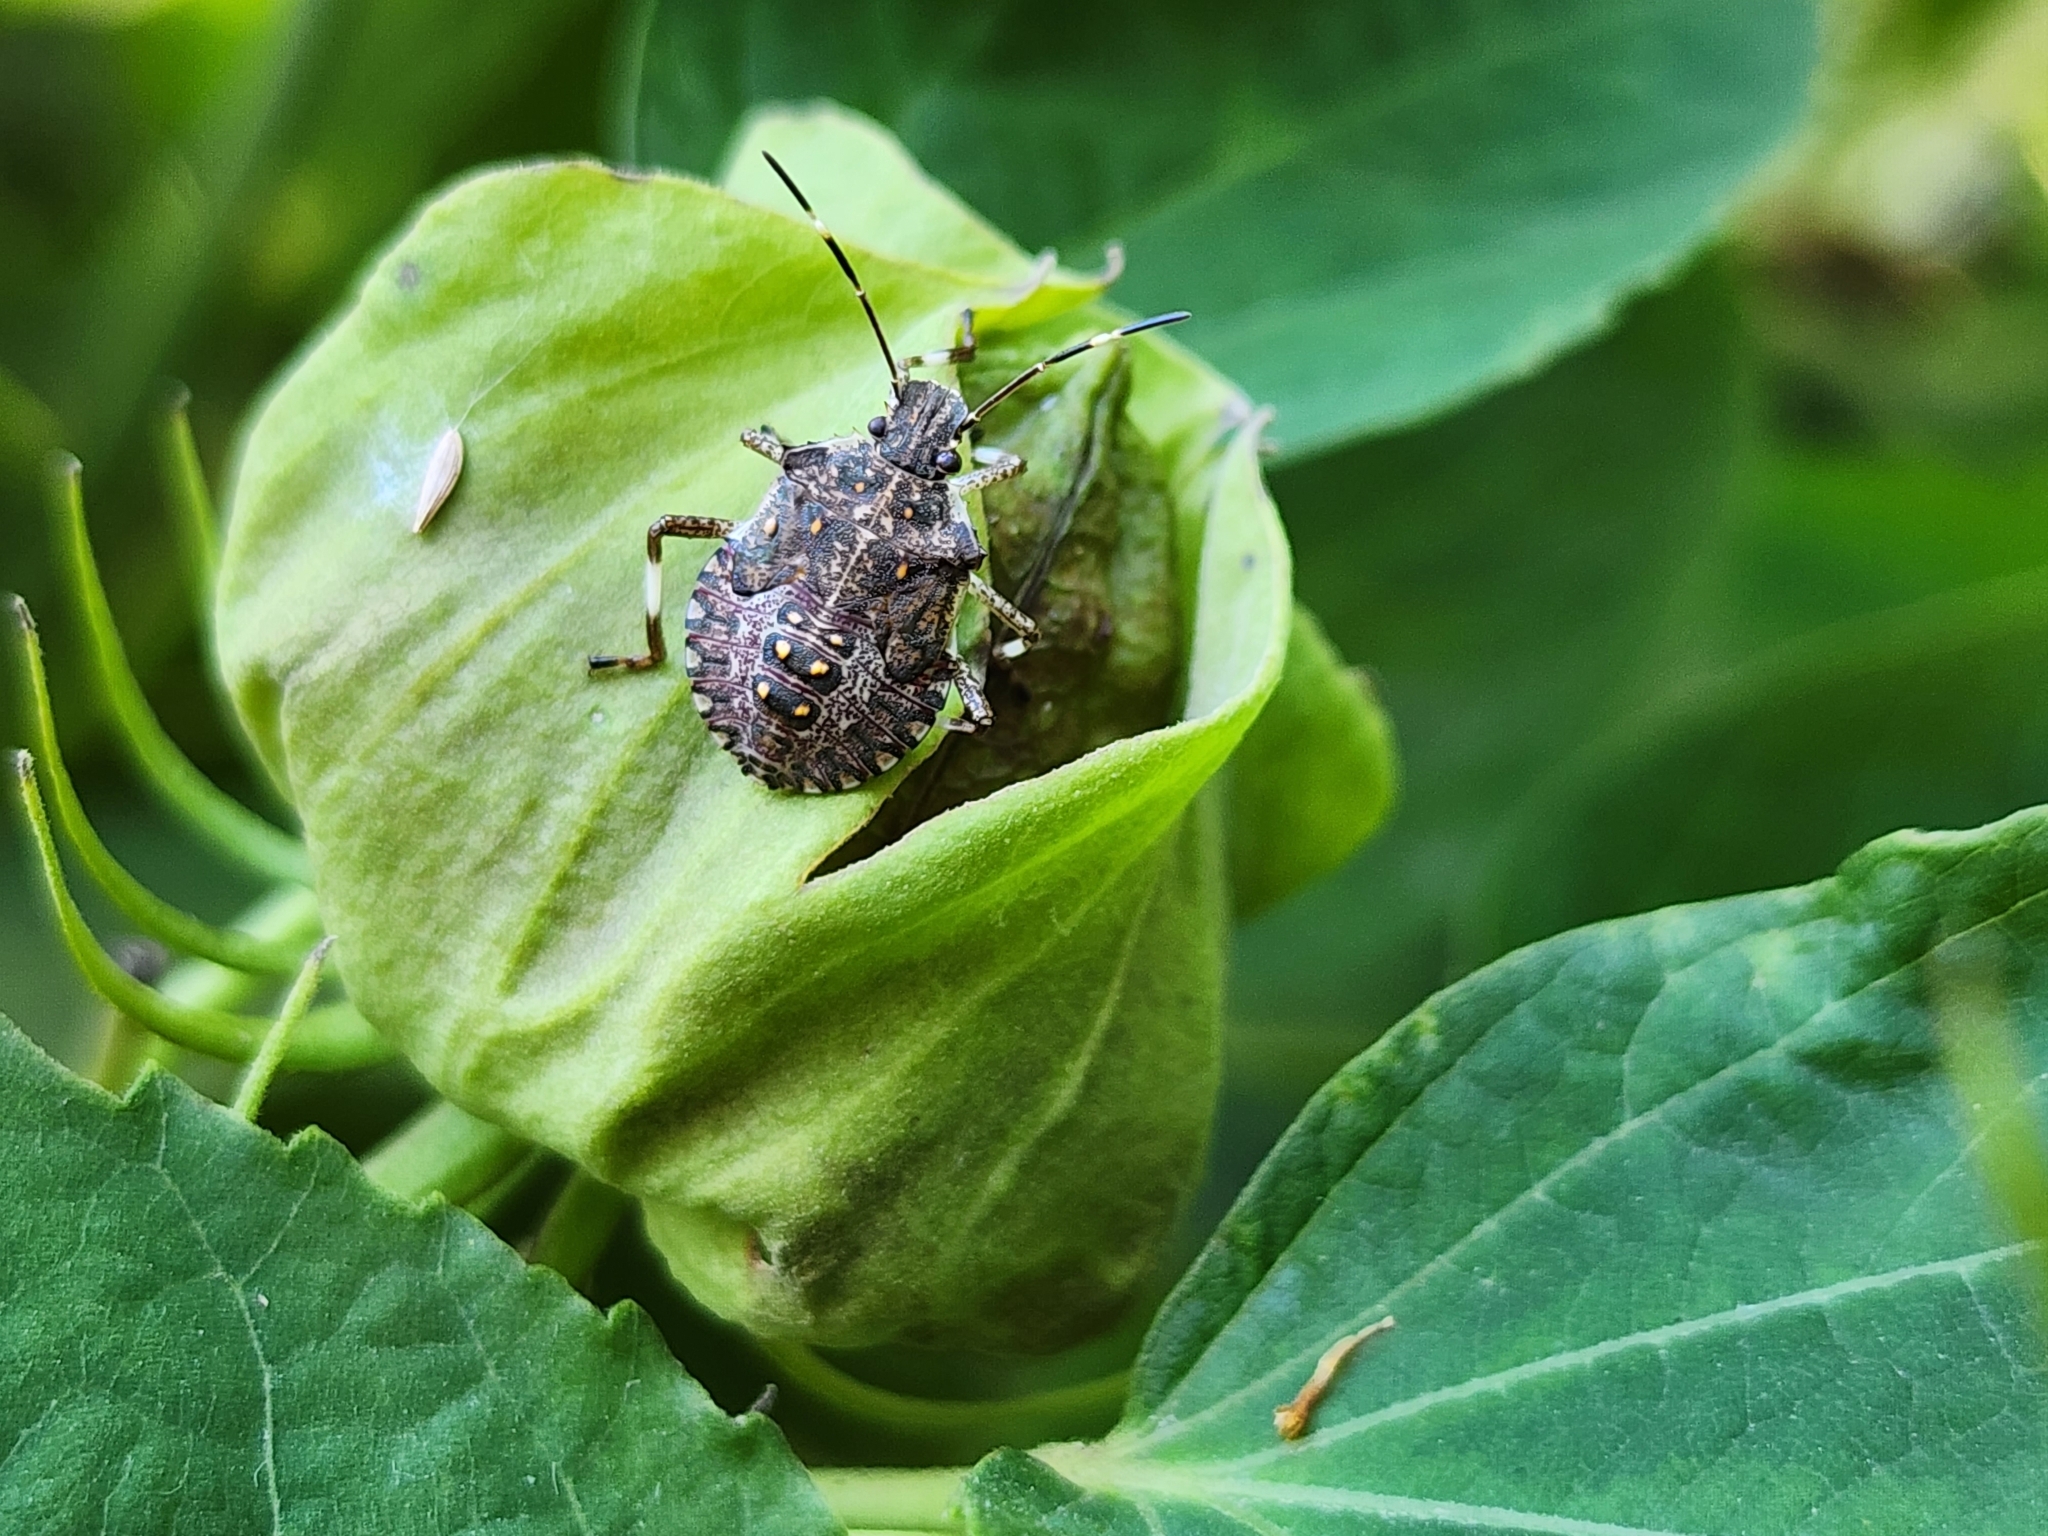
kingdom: Animalia
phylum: Arthropoda
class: Insecta
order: Hemiptera
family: Pentatomidae
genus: Halyomorpha
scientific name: Halyomorpha halys
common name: Brown marmorated stink bug
